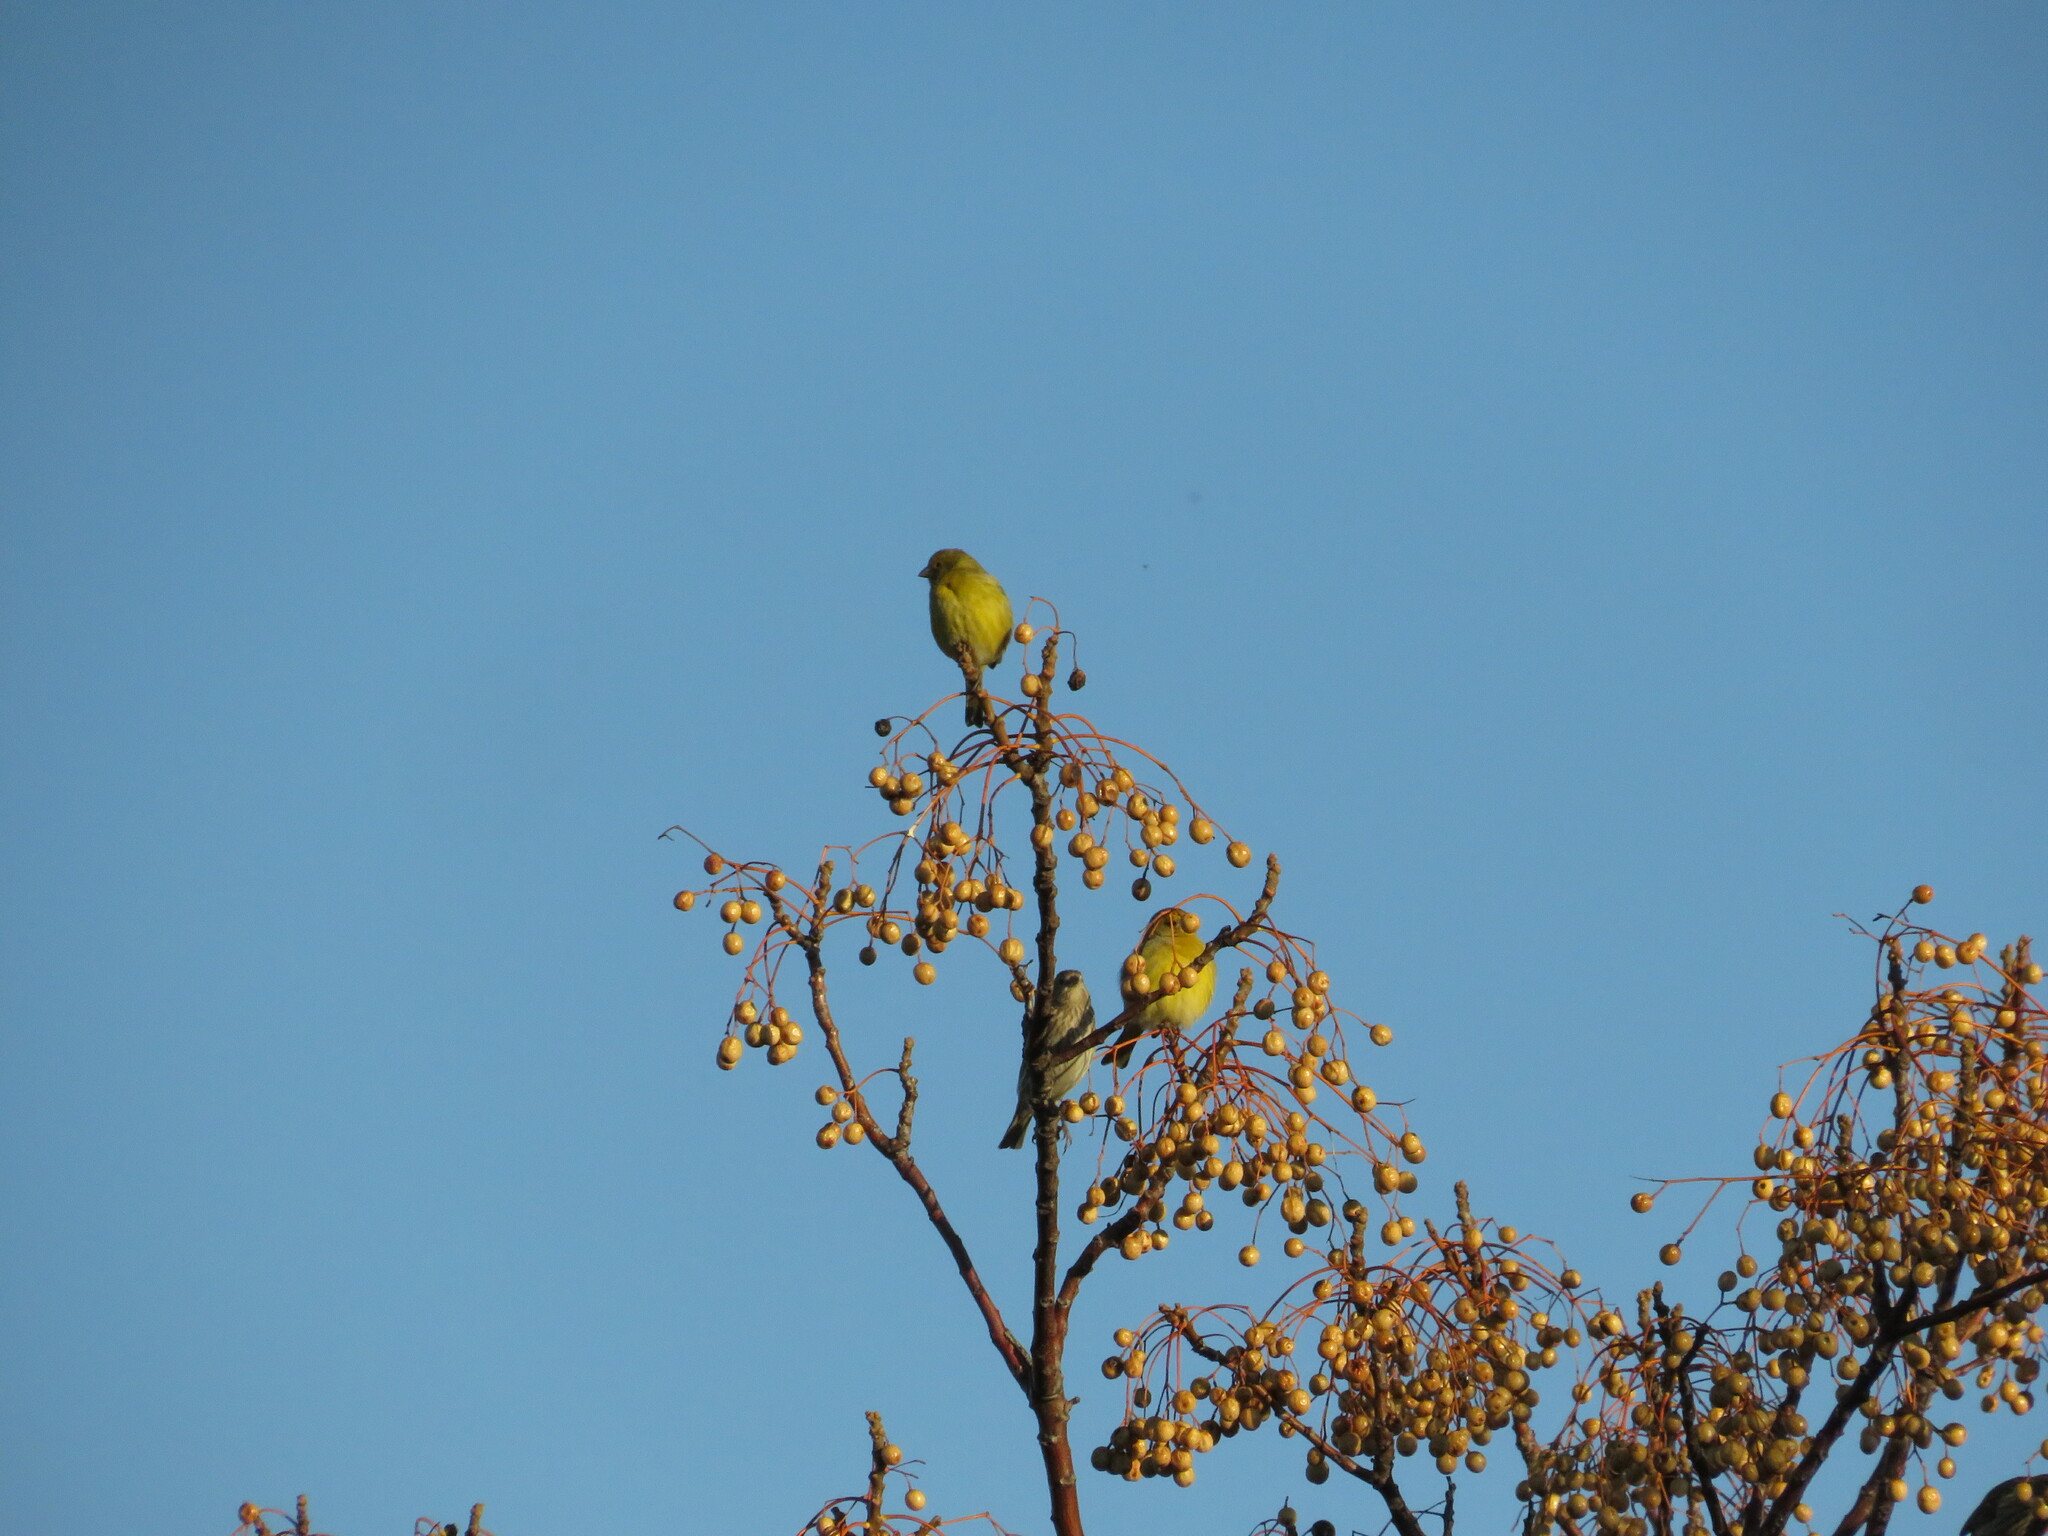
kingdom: Animalia
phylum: Chordata
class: Aves
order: Passeriformes
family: Thraupidae
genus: Sicalis
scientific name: Sicalis flaveola
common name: Saffron finch
